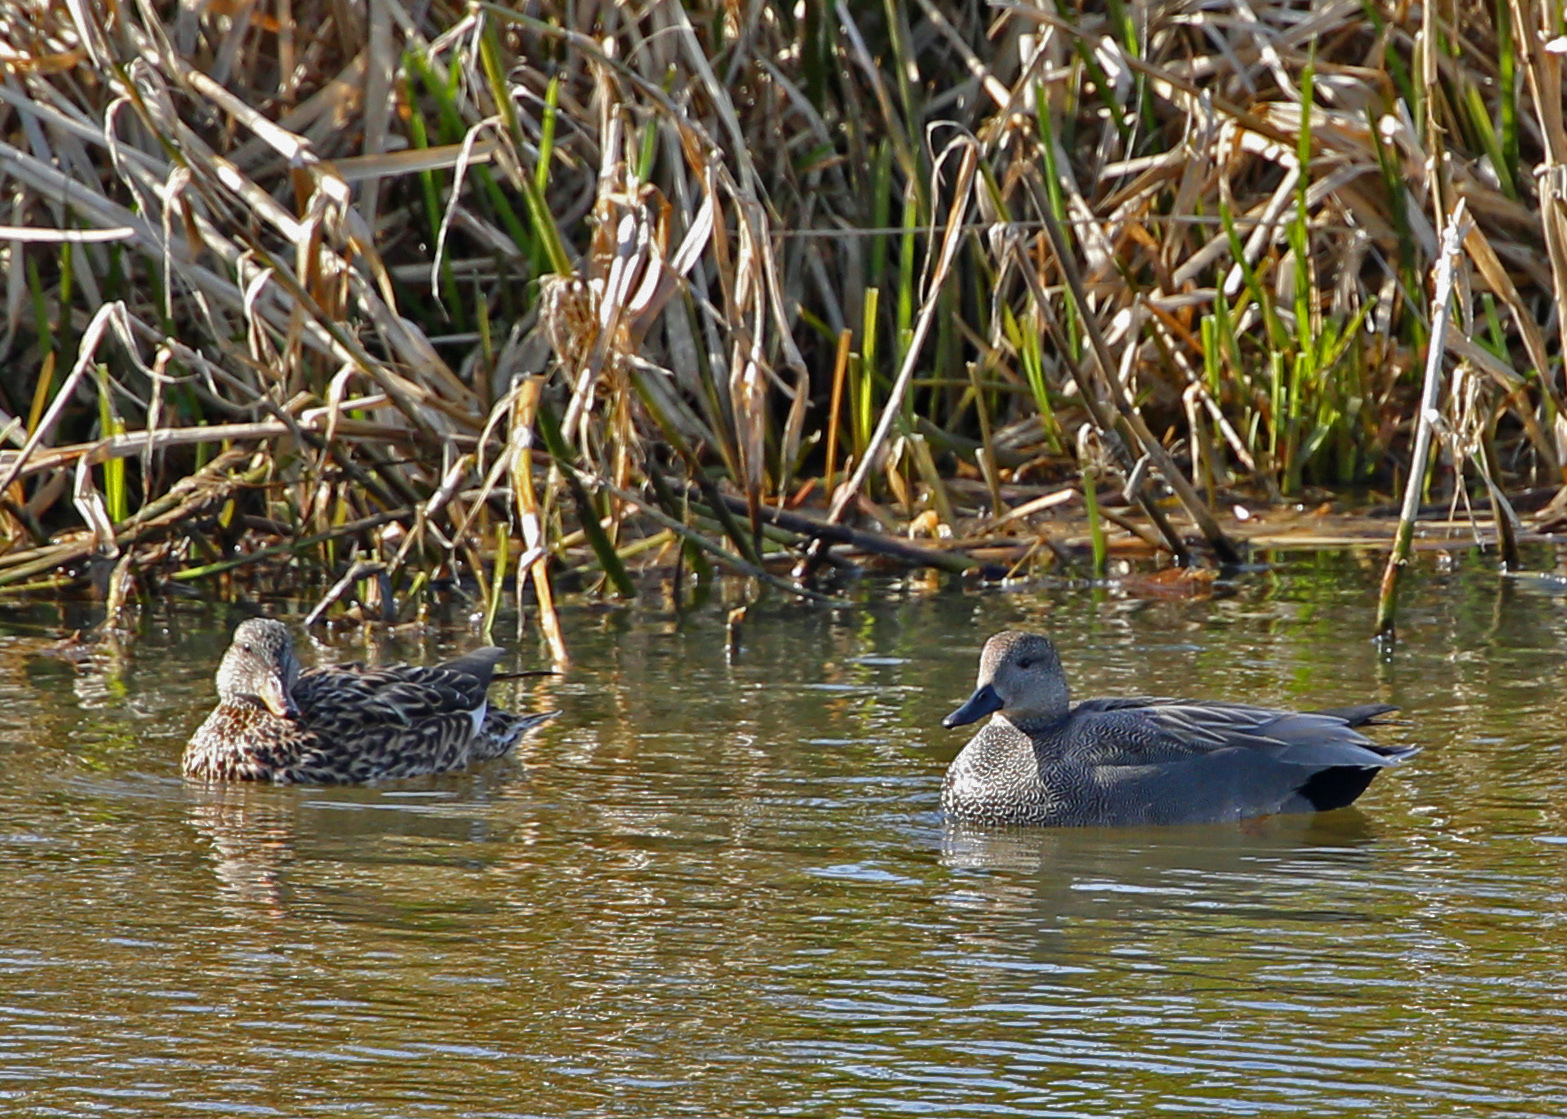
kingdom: Animalia
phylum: Chordata
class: Aves
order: Anseriformes
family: Anatidae
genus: Mareca
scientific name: Mareca strepera
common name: Gadwall
